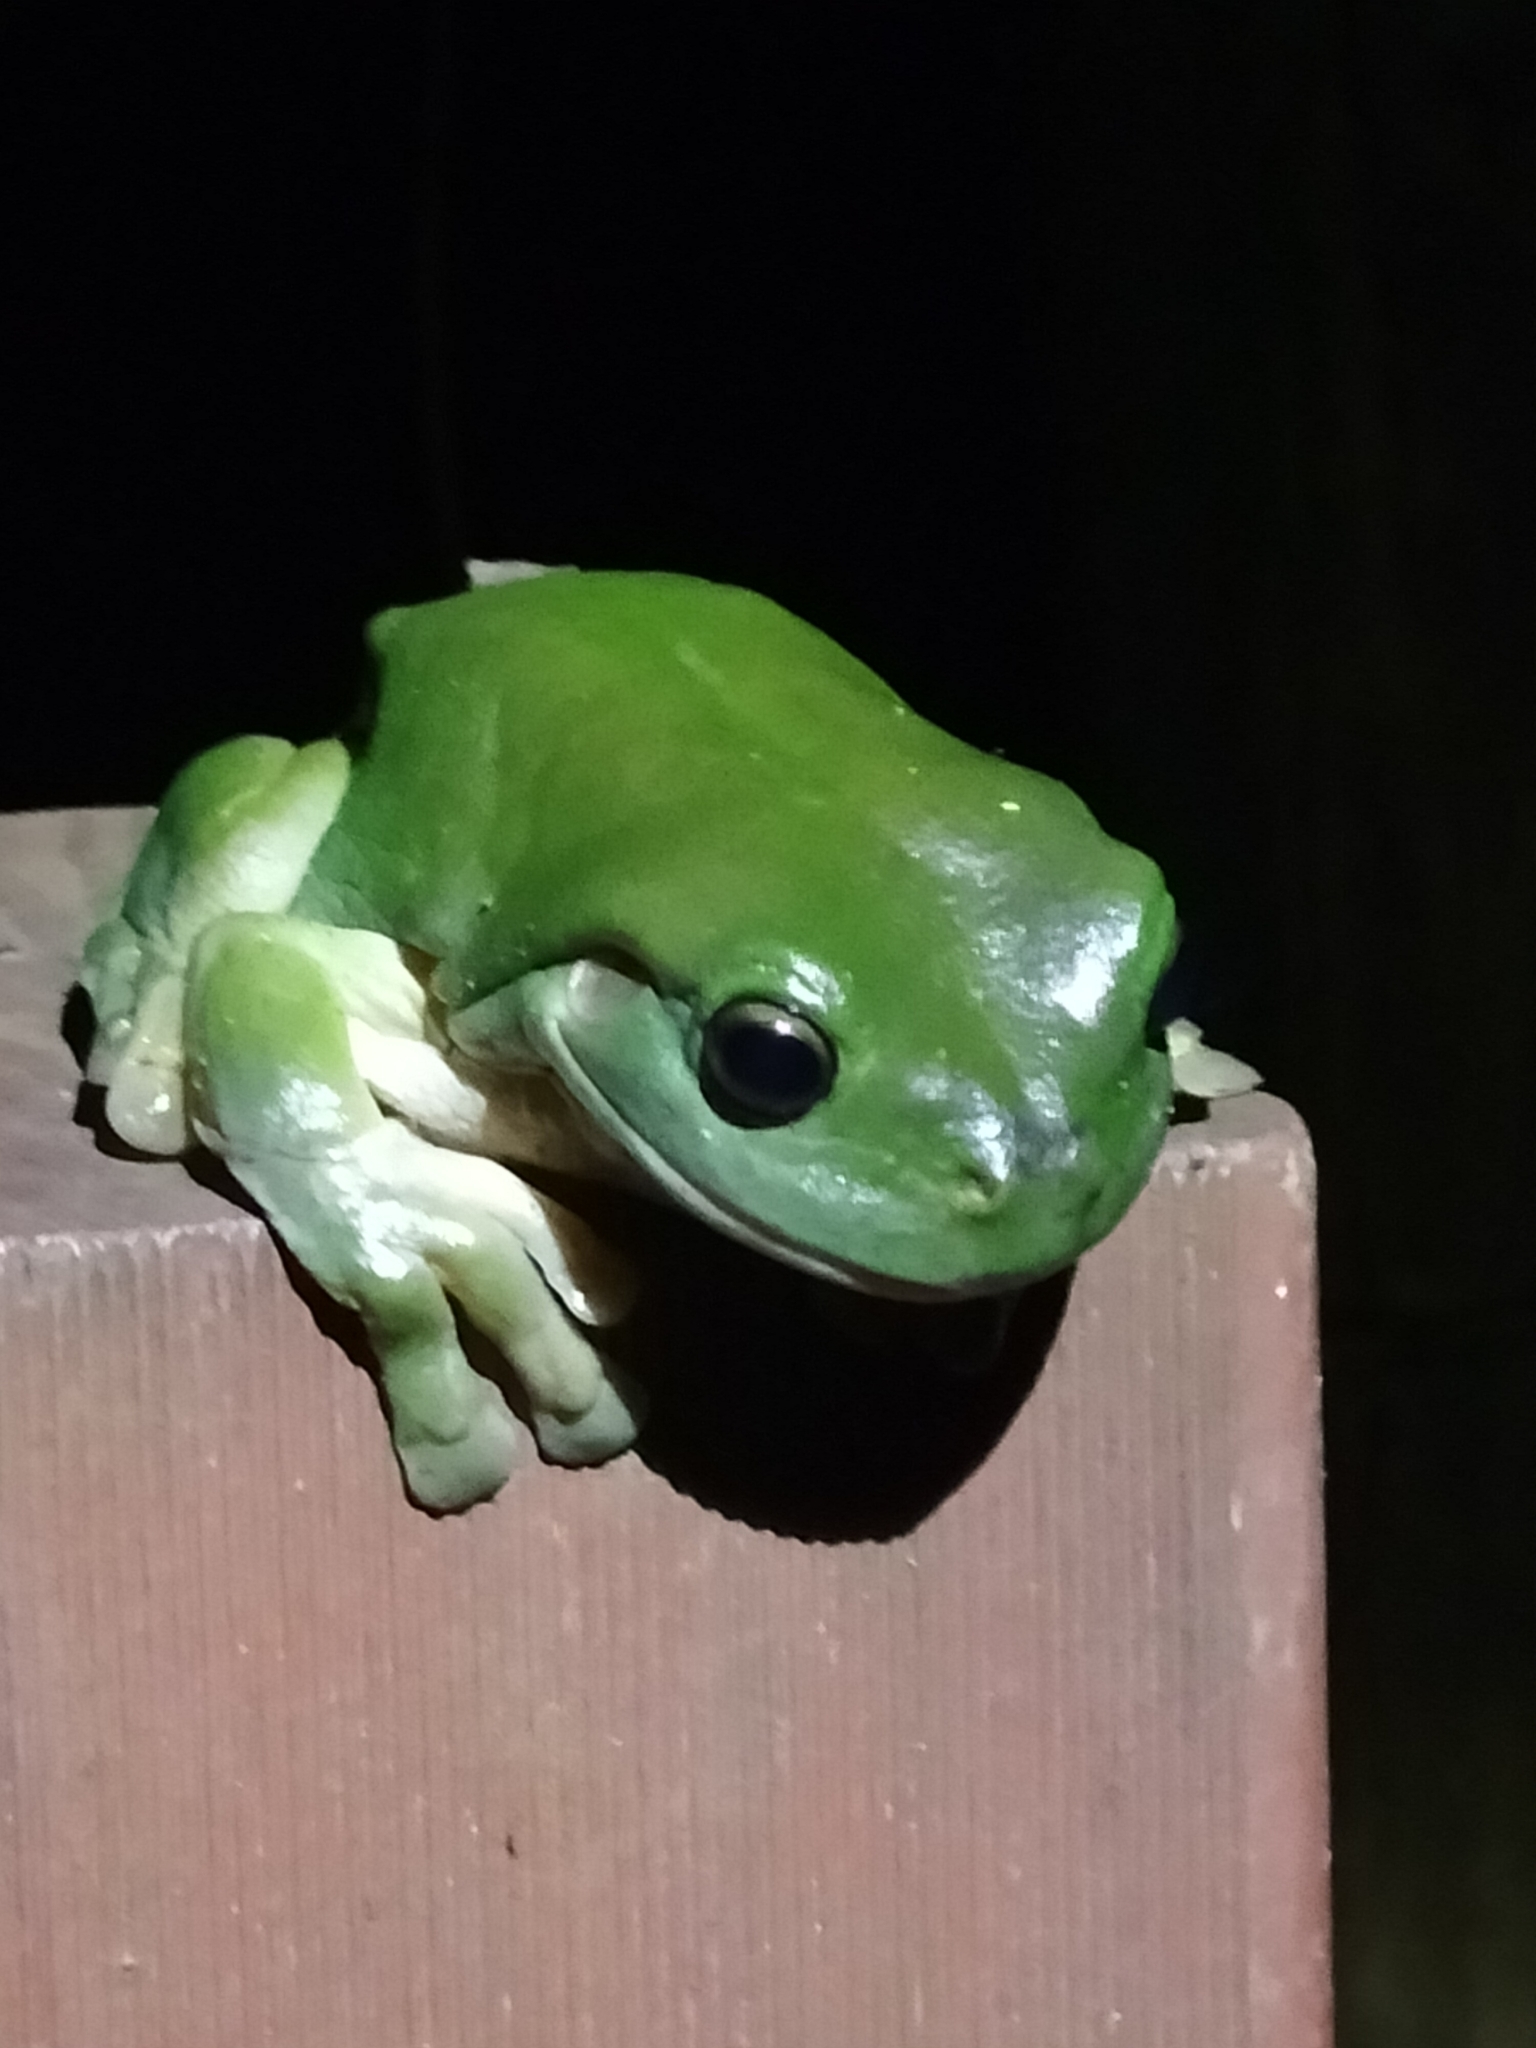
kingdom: Animalia
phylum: Chordata
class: Amphibia
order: Anura
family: Pelodryadidae
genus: Ranoidea
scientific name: Ranoidea caerulea
